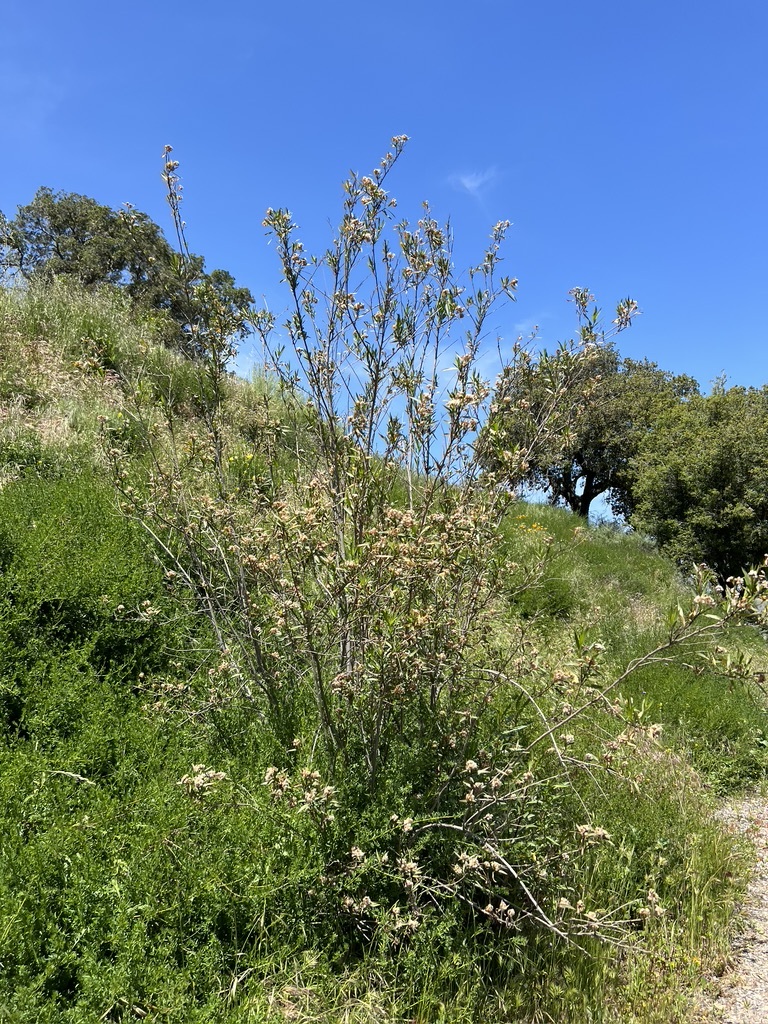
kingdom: Plantae
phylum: Tracheophyta
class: Magnoliopsida
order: Asterales
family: Asteraceae
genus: Baccharis
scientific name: Baccharis salicifolia
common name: Sticky baccharis
